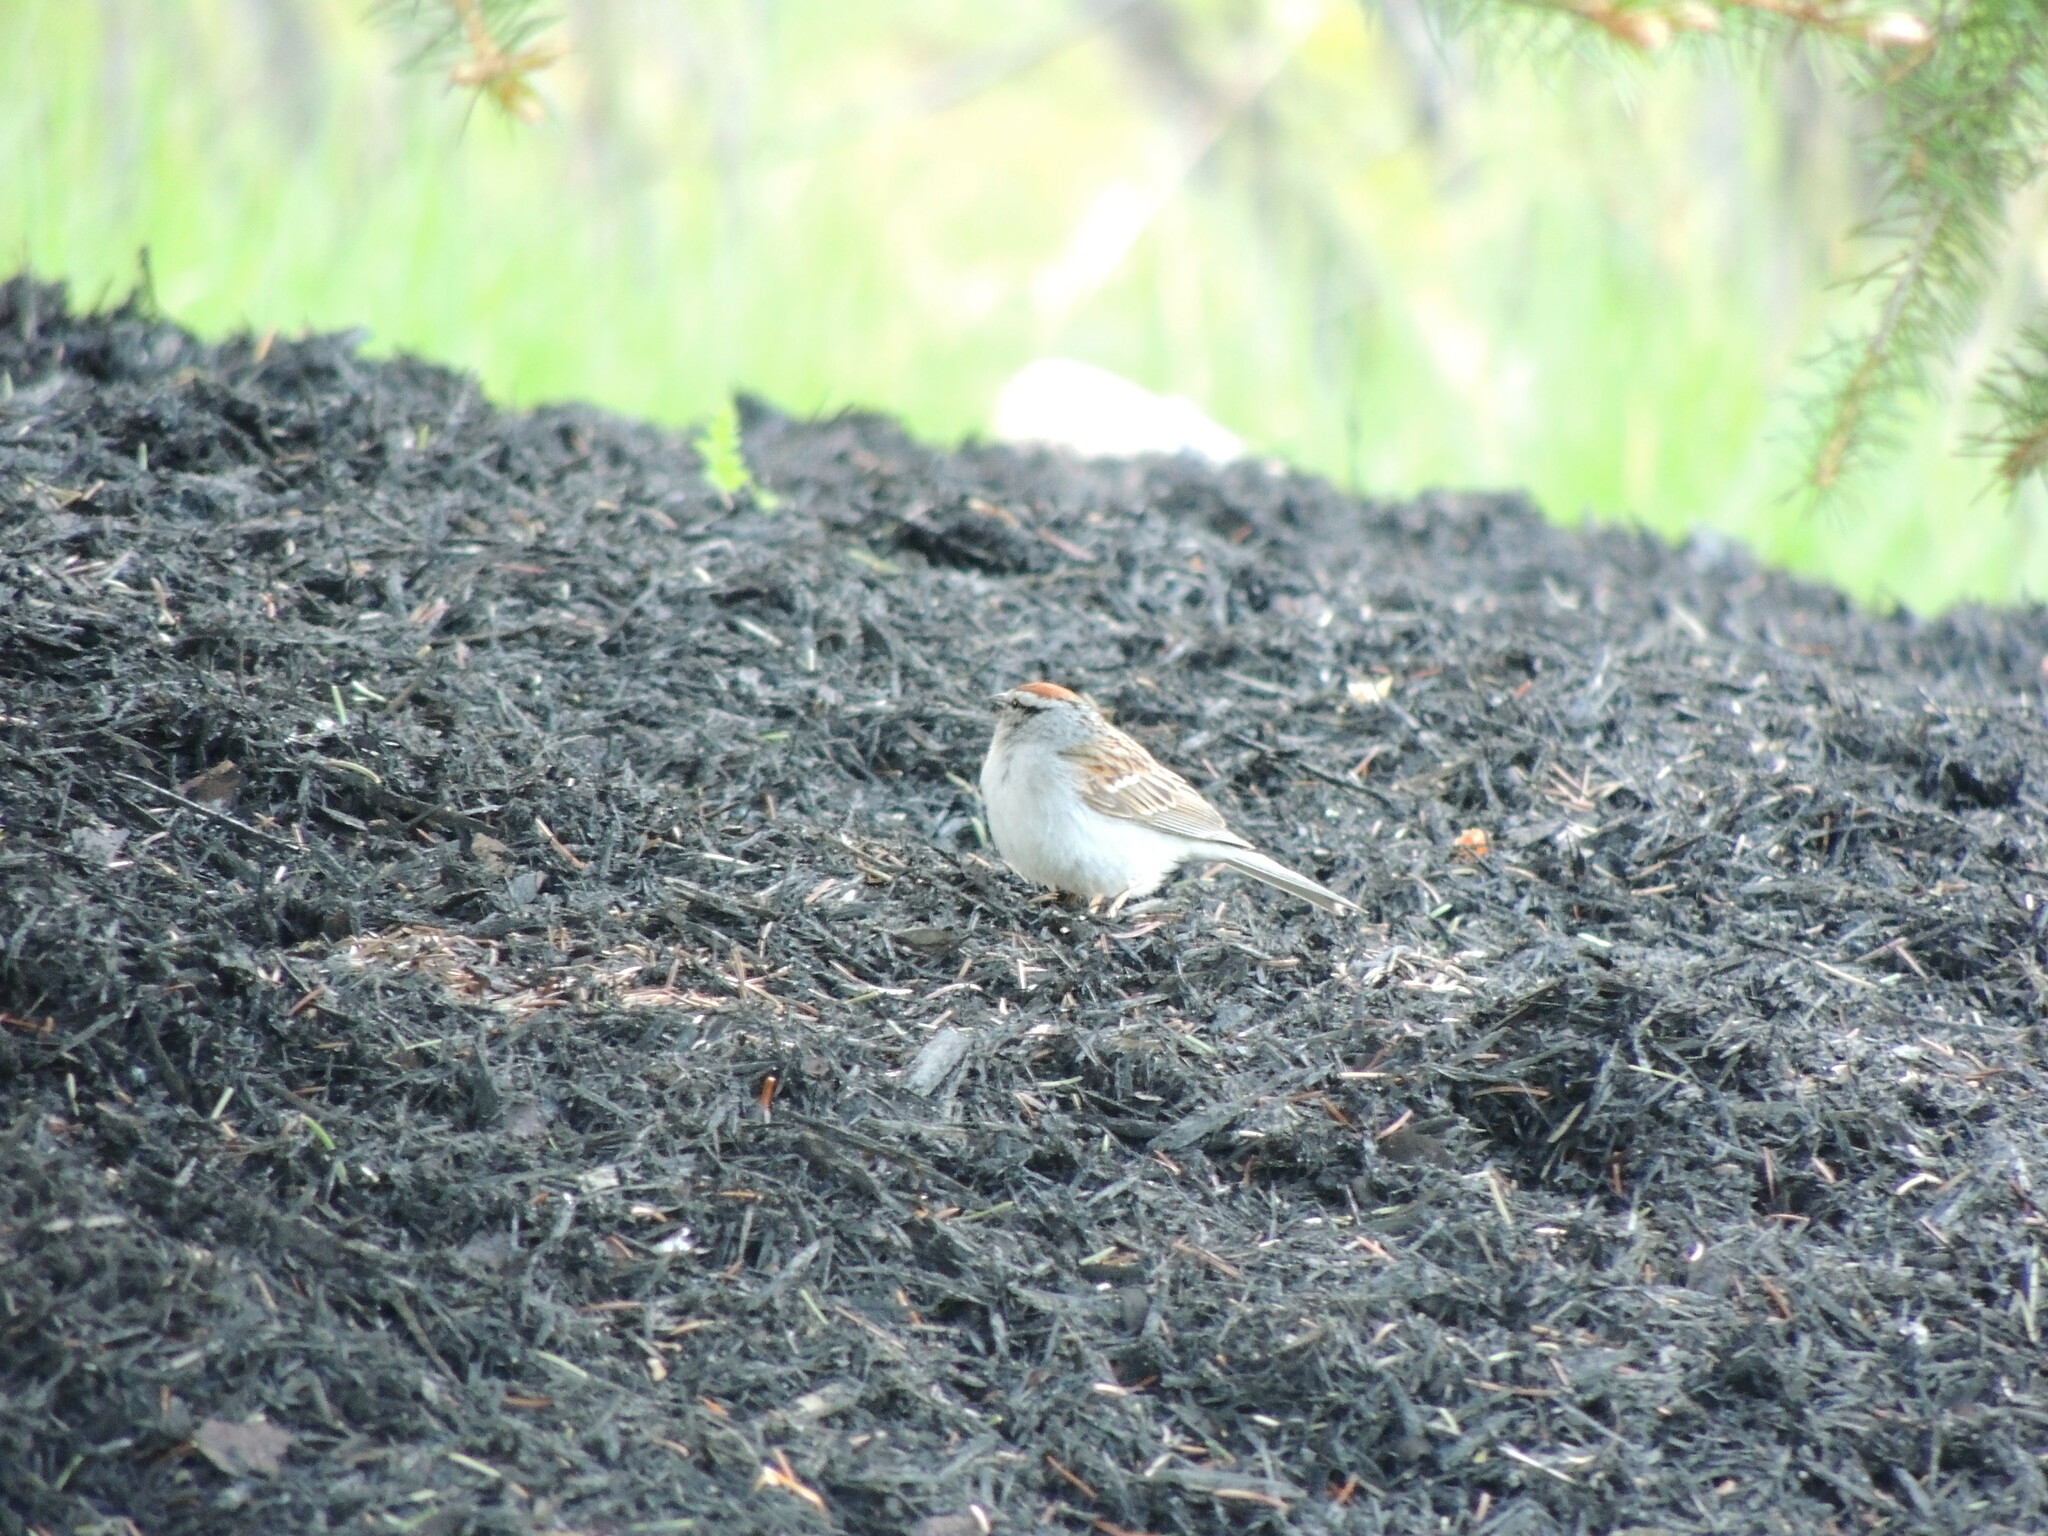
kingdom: Animalia
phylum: Chordata
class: Aves
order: Passeriformes
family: Passerellidae
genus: Spizella
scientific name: Spizella passerina
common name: Chipping sparrow
